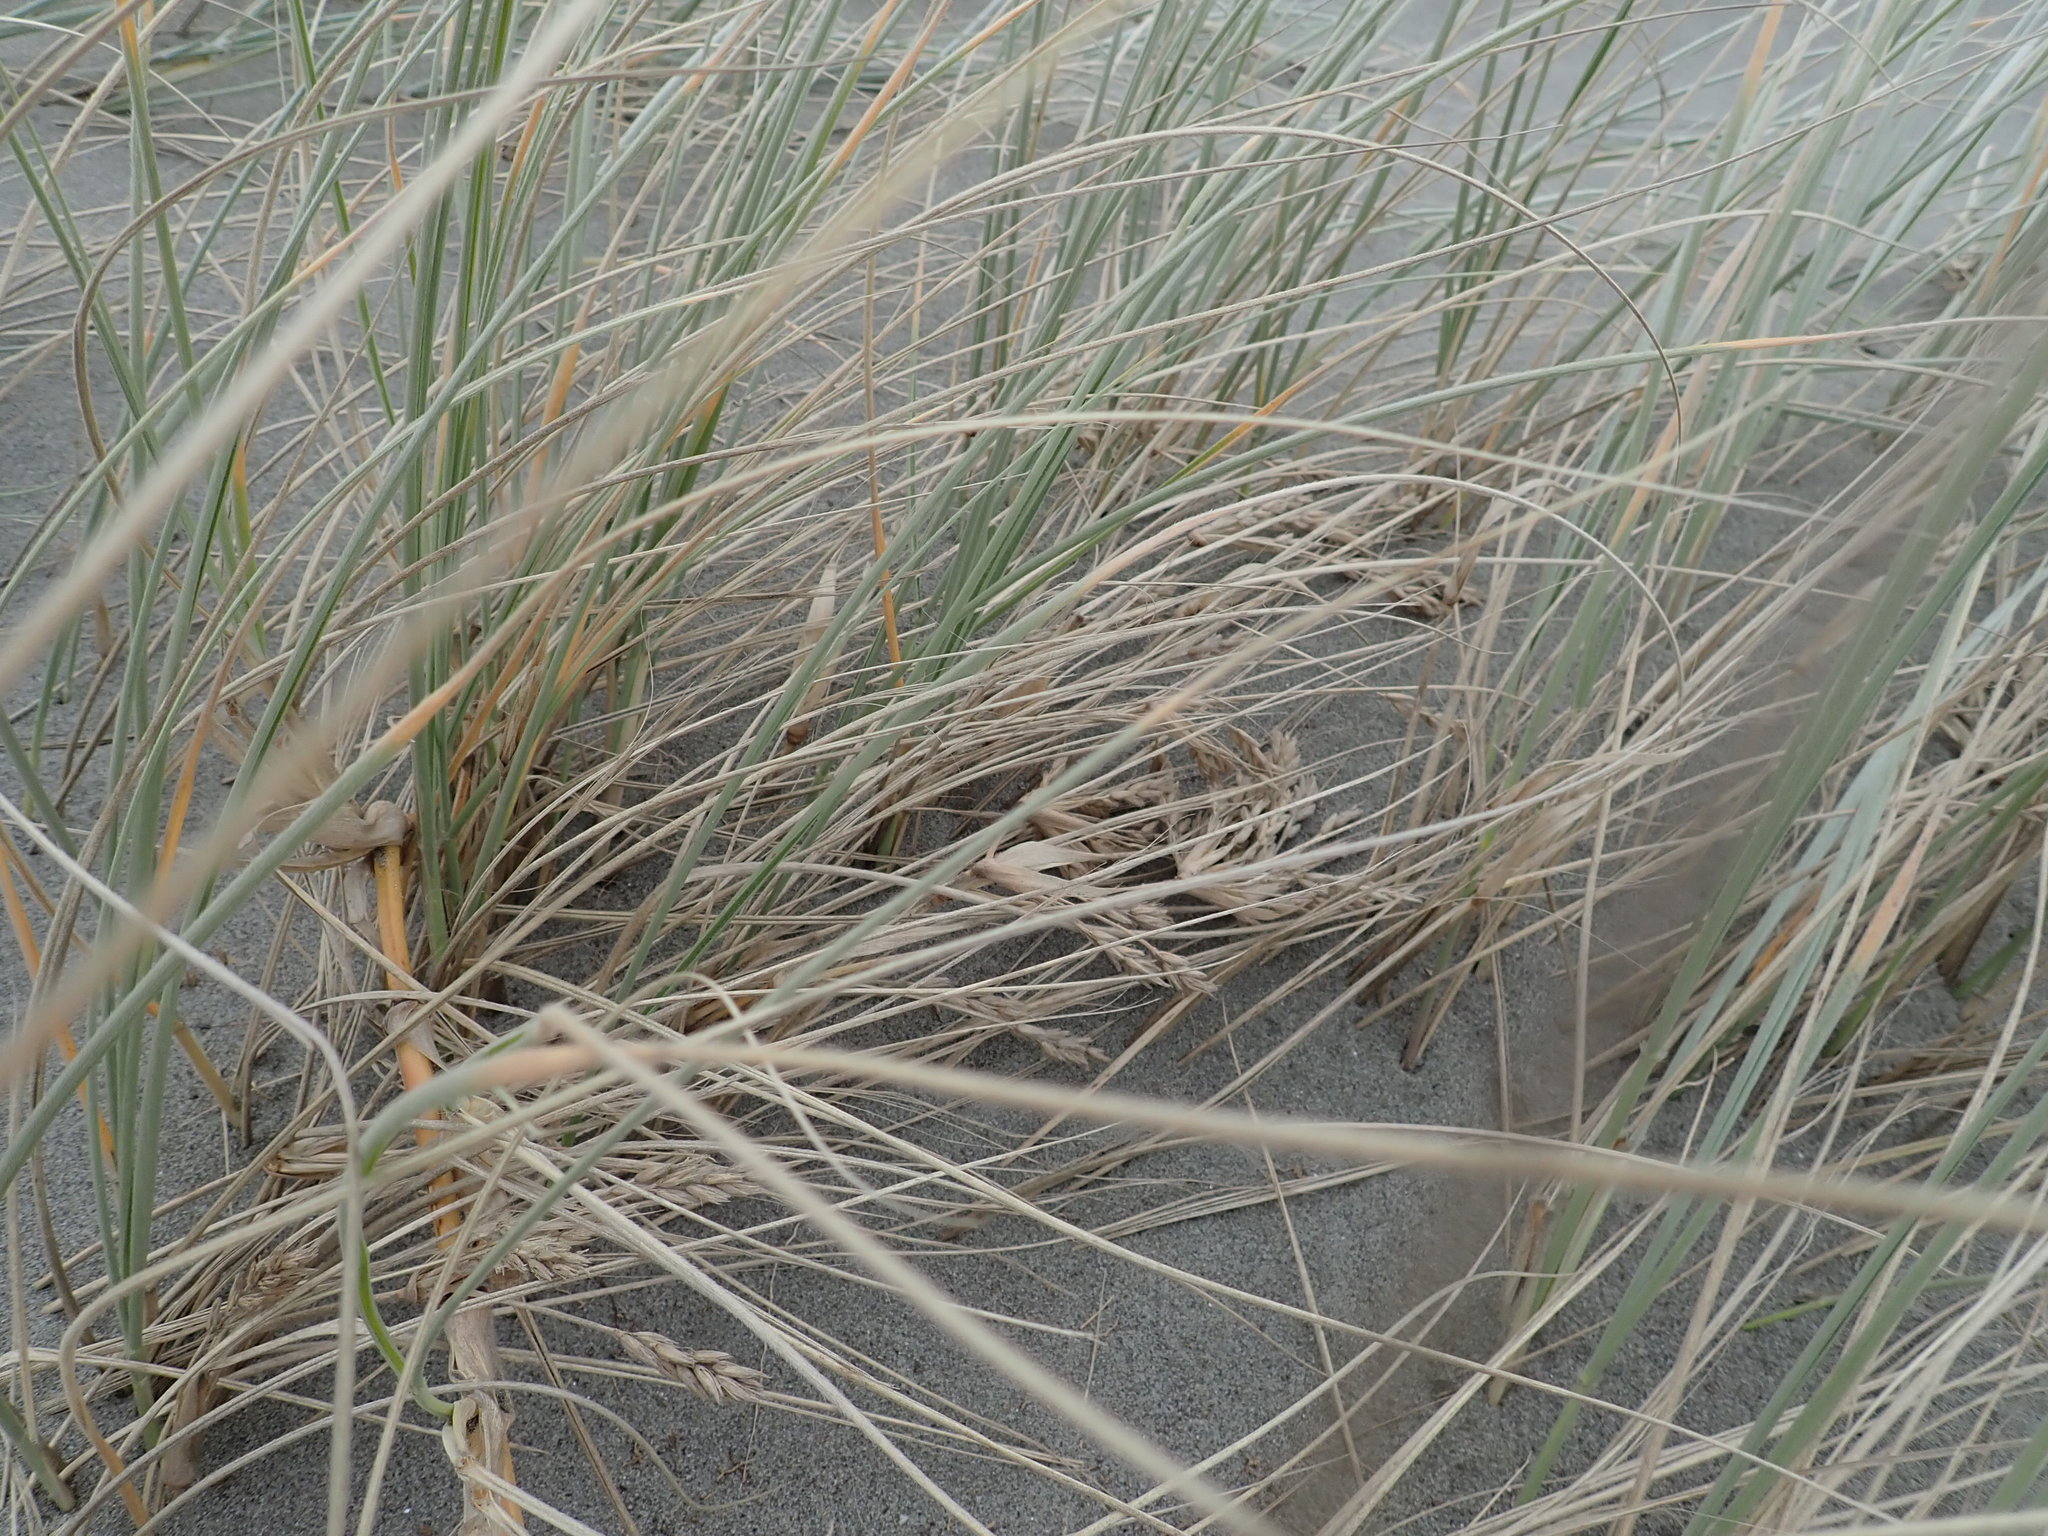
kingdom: Plantae
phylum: Tracheophyta
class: Liliopsida
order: Poales
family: Poaceae
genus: Spinifex
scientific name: Spinifex sericeus
